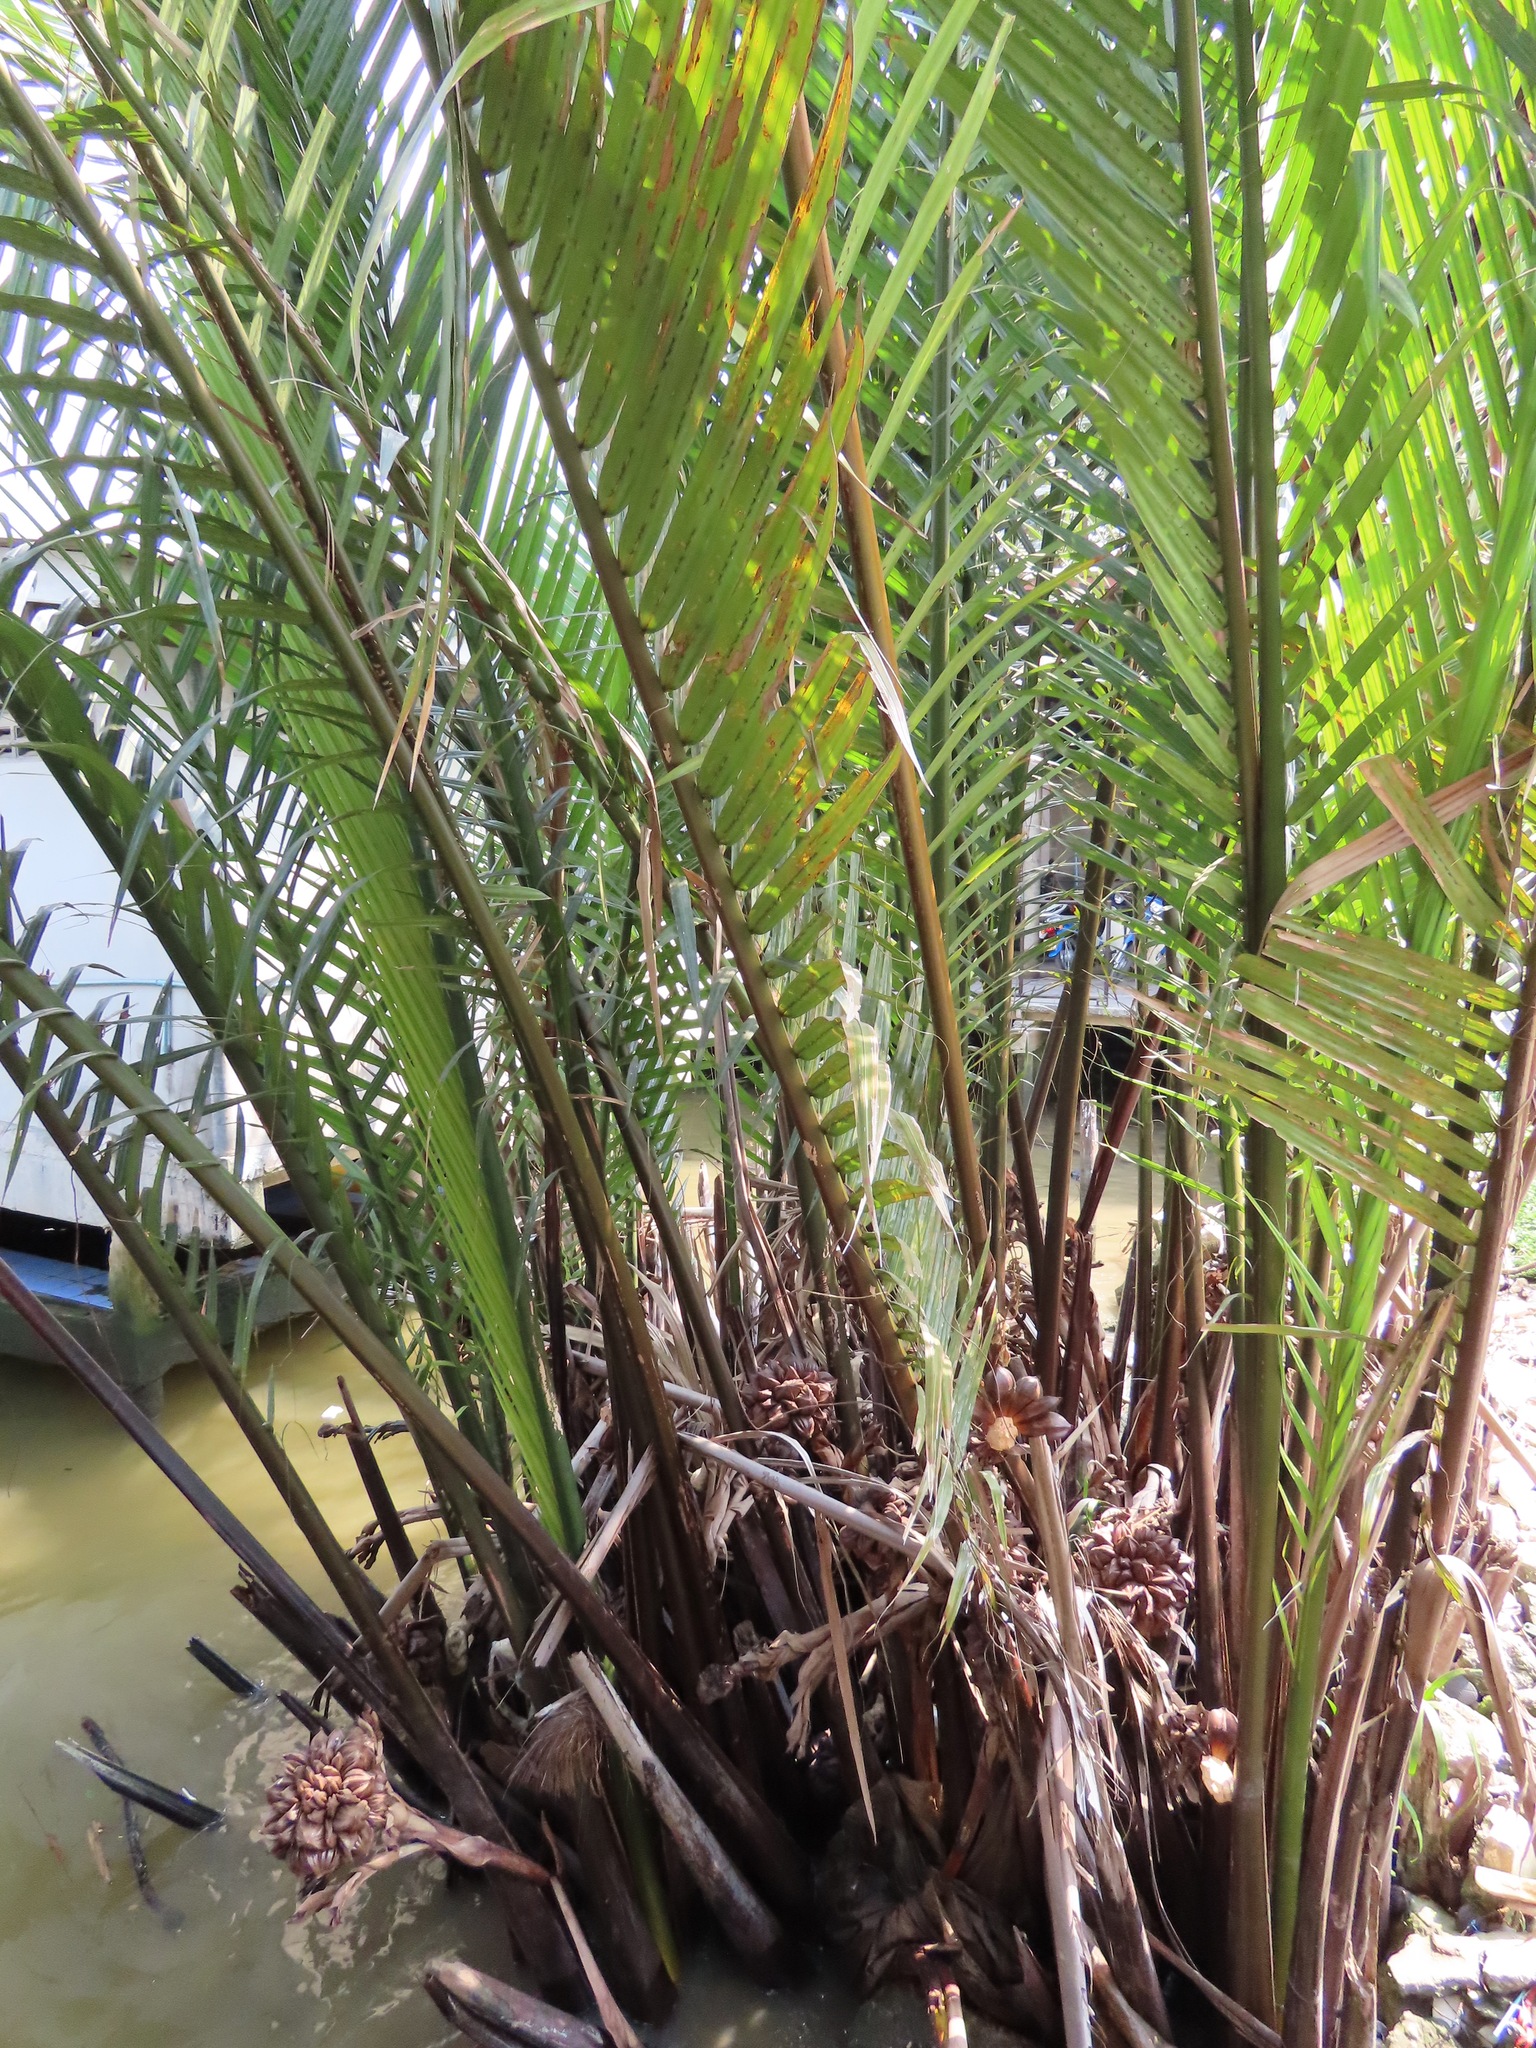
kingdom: Plantae
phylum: Tracheophyta
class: Liliopsida
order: Arecales
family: Arecaceae
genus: Nypa
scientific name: Nypa fruticans
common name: Mangrove palm
